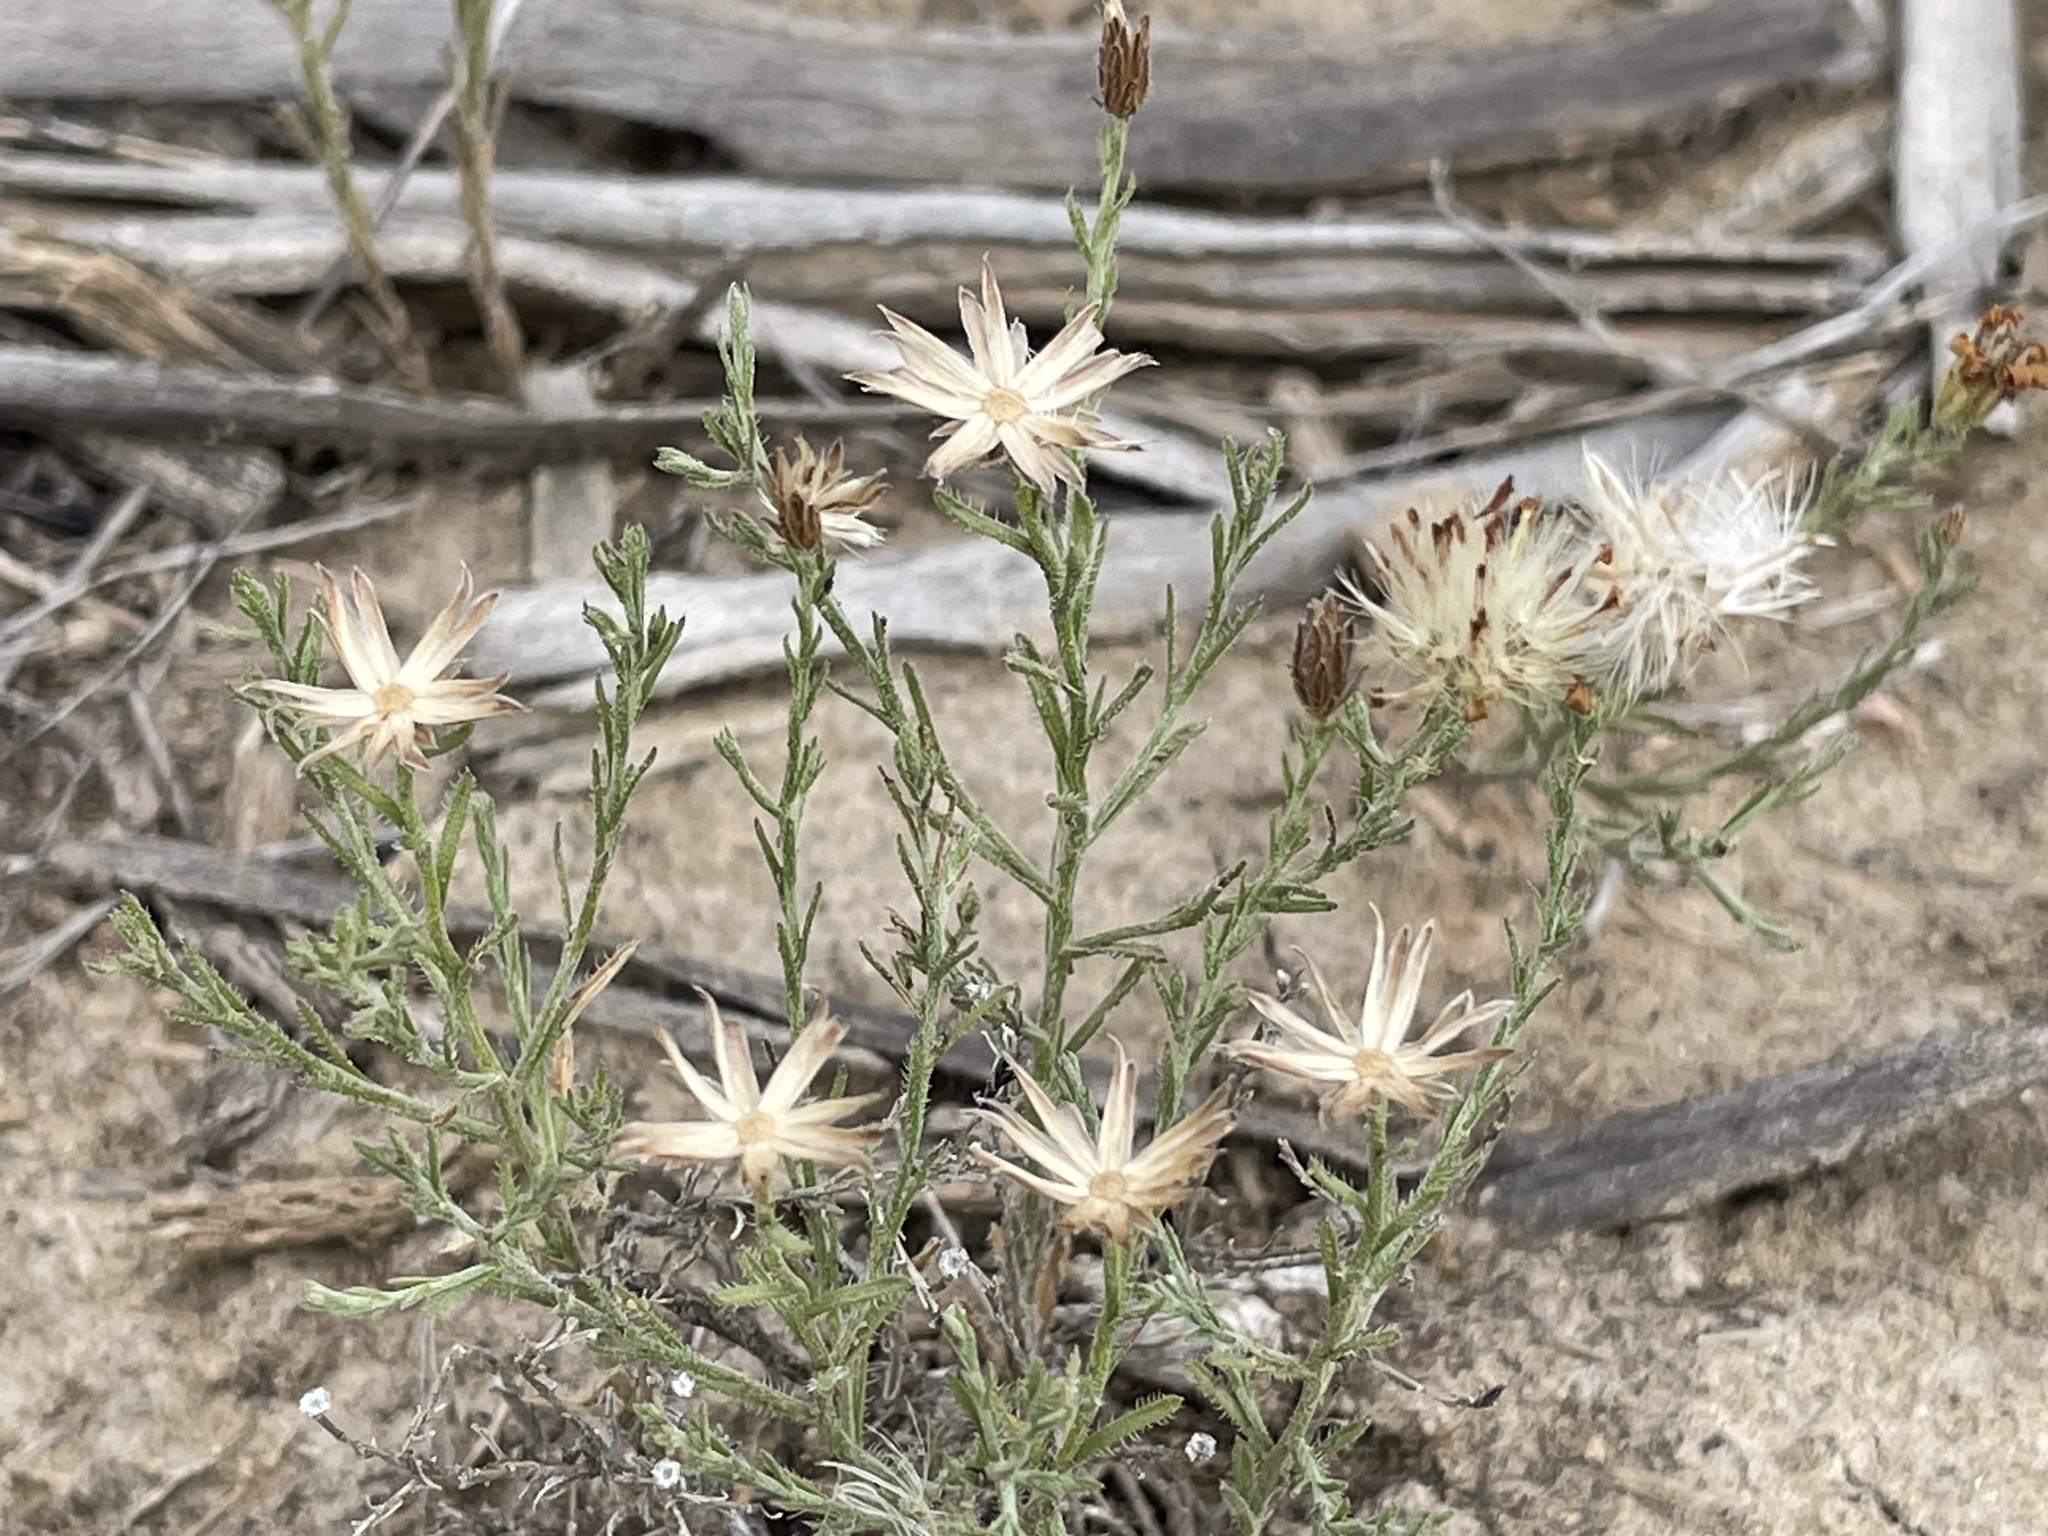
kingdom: Plantae
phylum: Tracheophyta
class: Magnoliopsida
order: Asterales
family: Asteraceae
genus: Chaetopappa
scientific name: Chaetopappa ericoides
